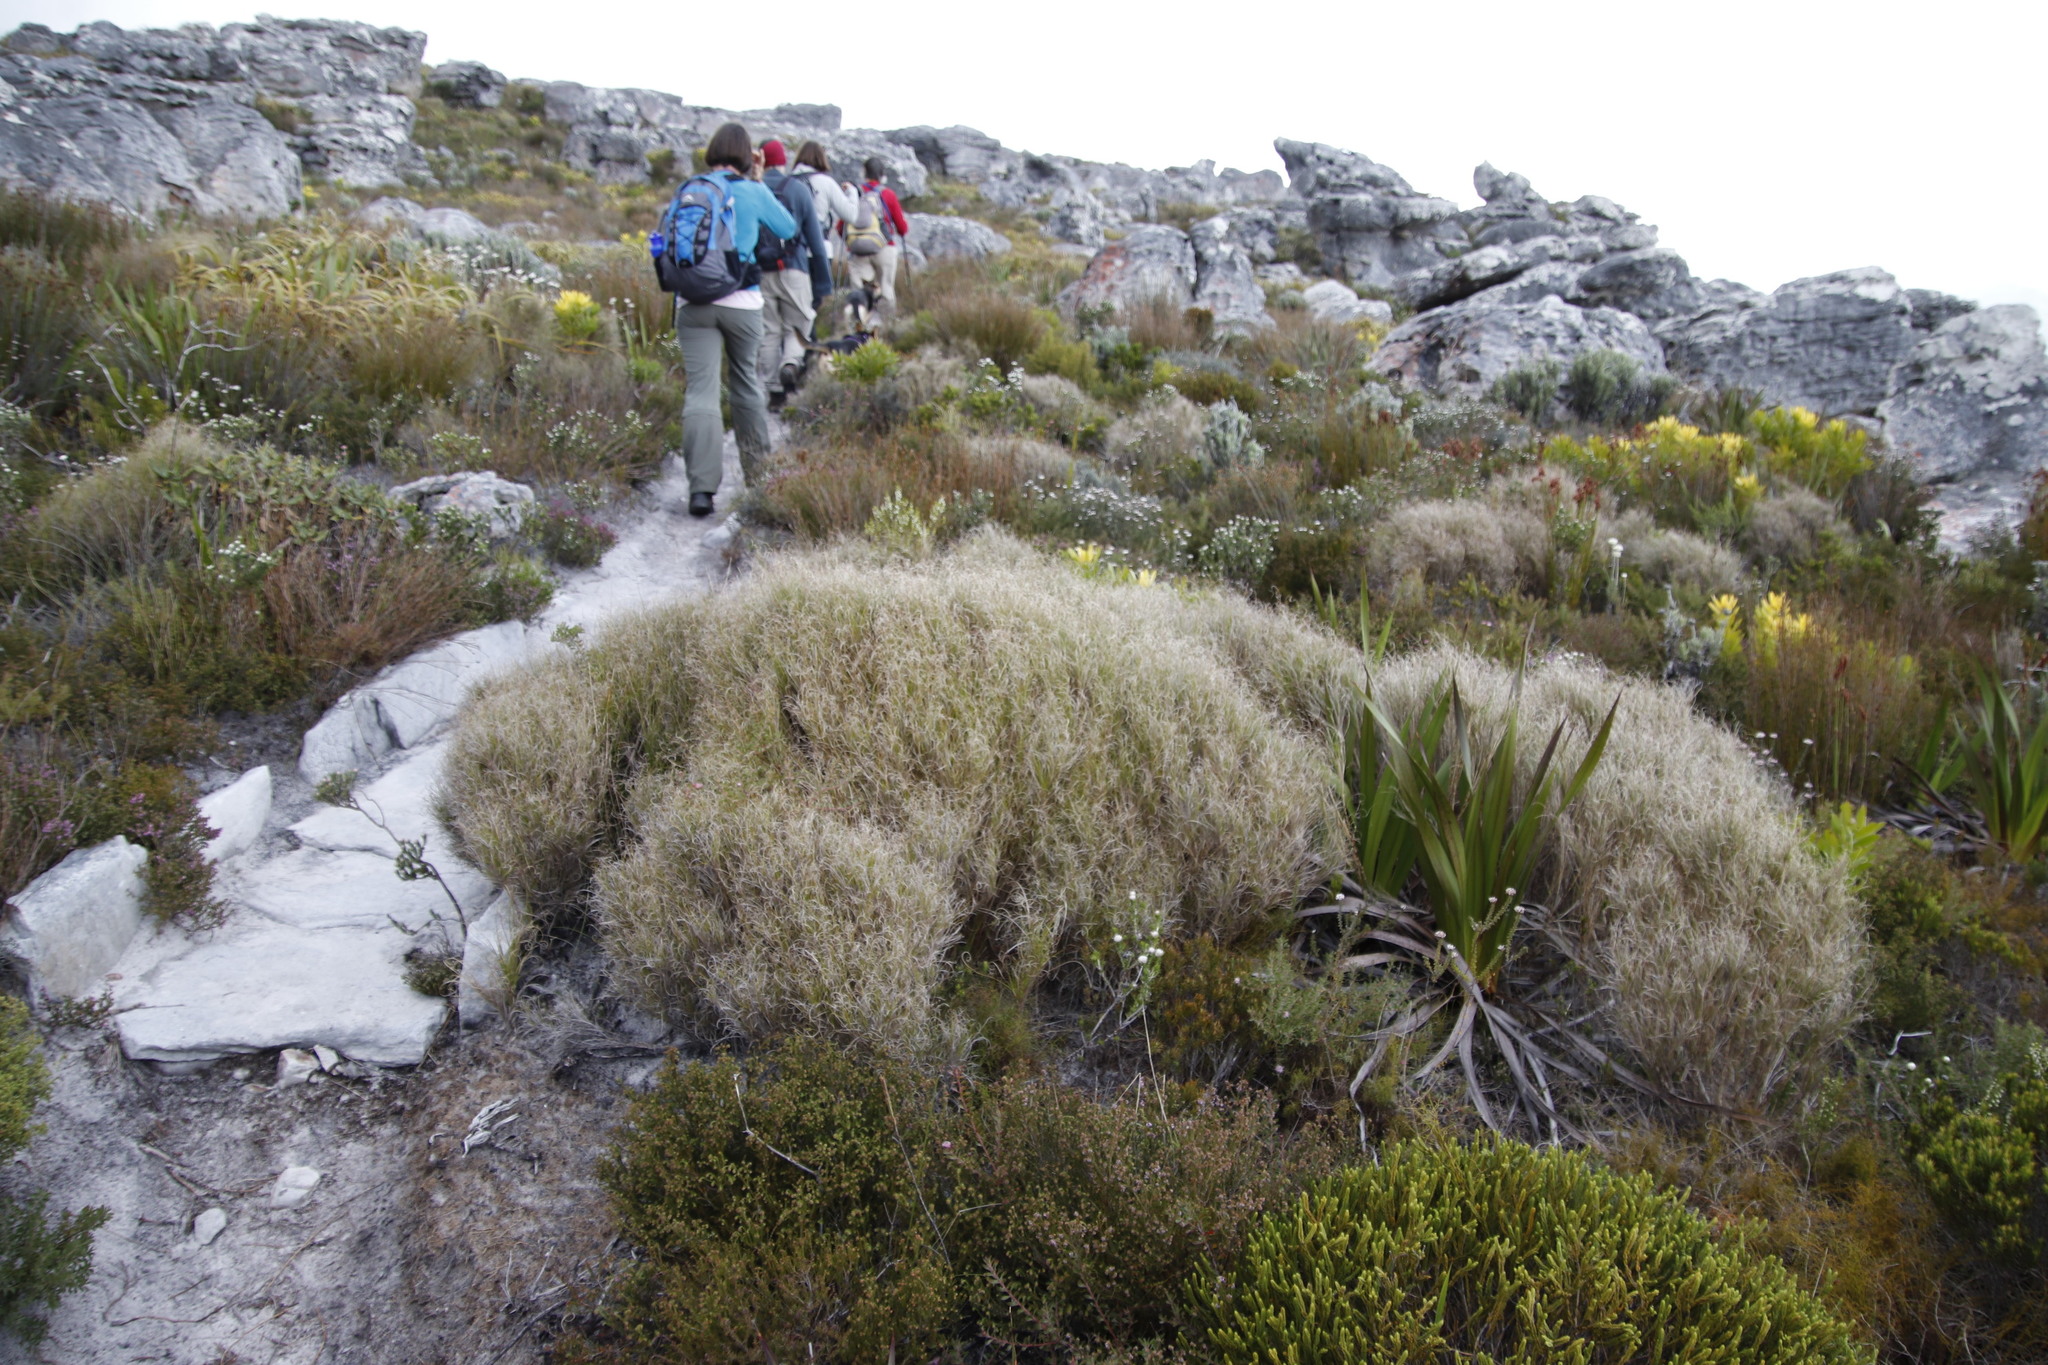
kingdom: Plantae
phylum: Tracheophyta
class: Liliopsida
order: Poales
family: Poaceae
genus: Pseudopentameris
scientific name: Pseudopentameris macrantha
